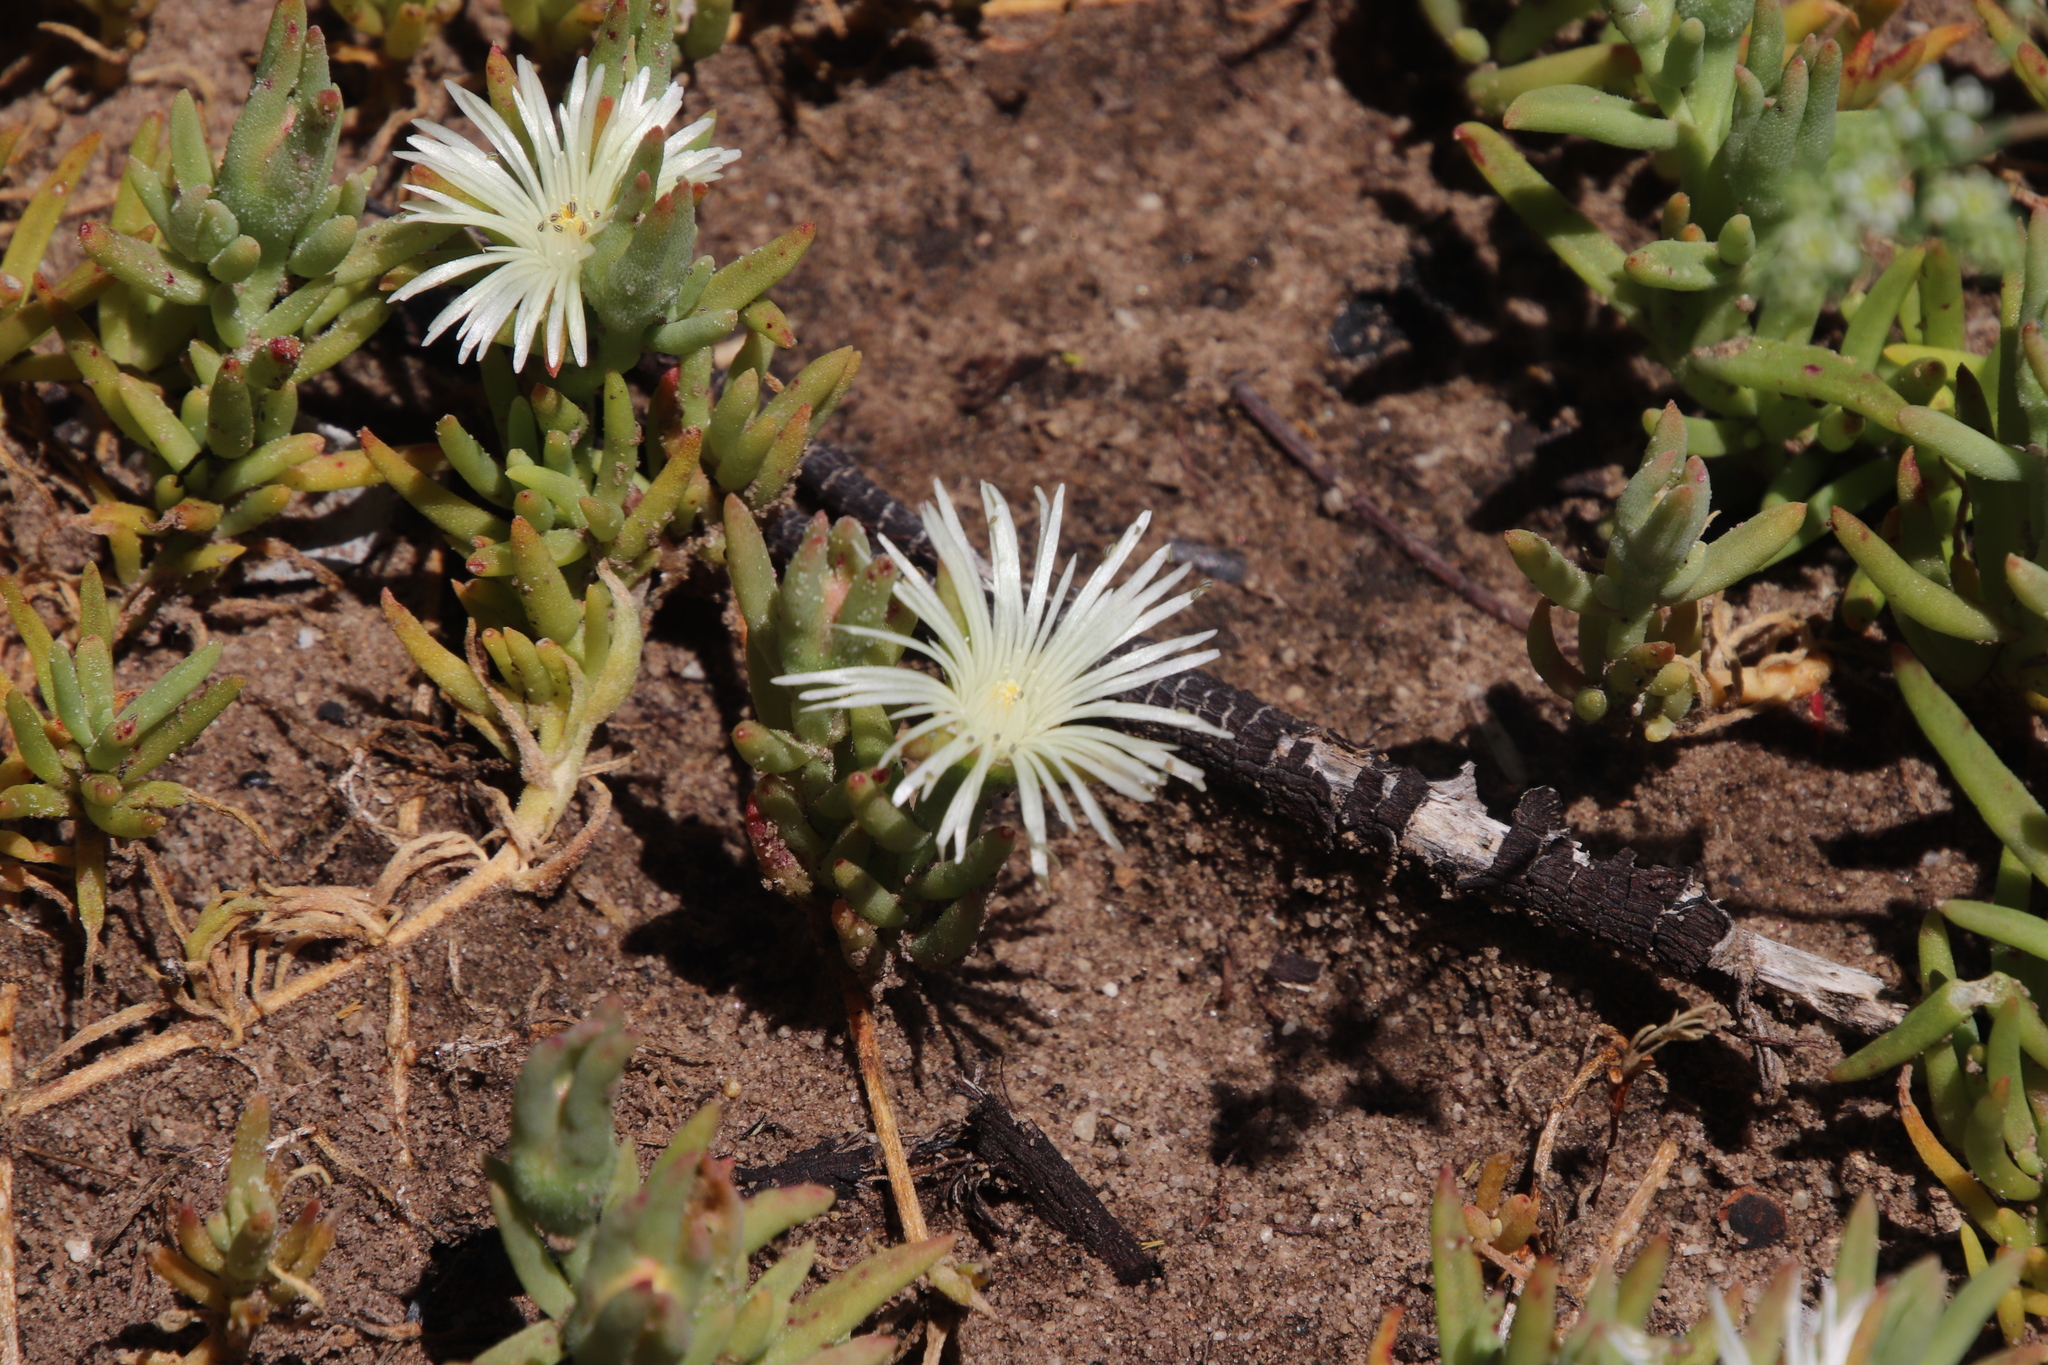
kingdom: Plantae
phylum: Tracheophyta
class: Magnoliopsida
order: Caryophyllales
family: Aizoaceae
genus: Mesembryanthemum
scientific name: Mesembryanthemum canaliculatum
